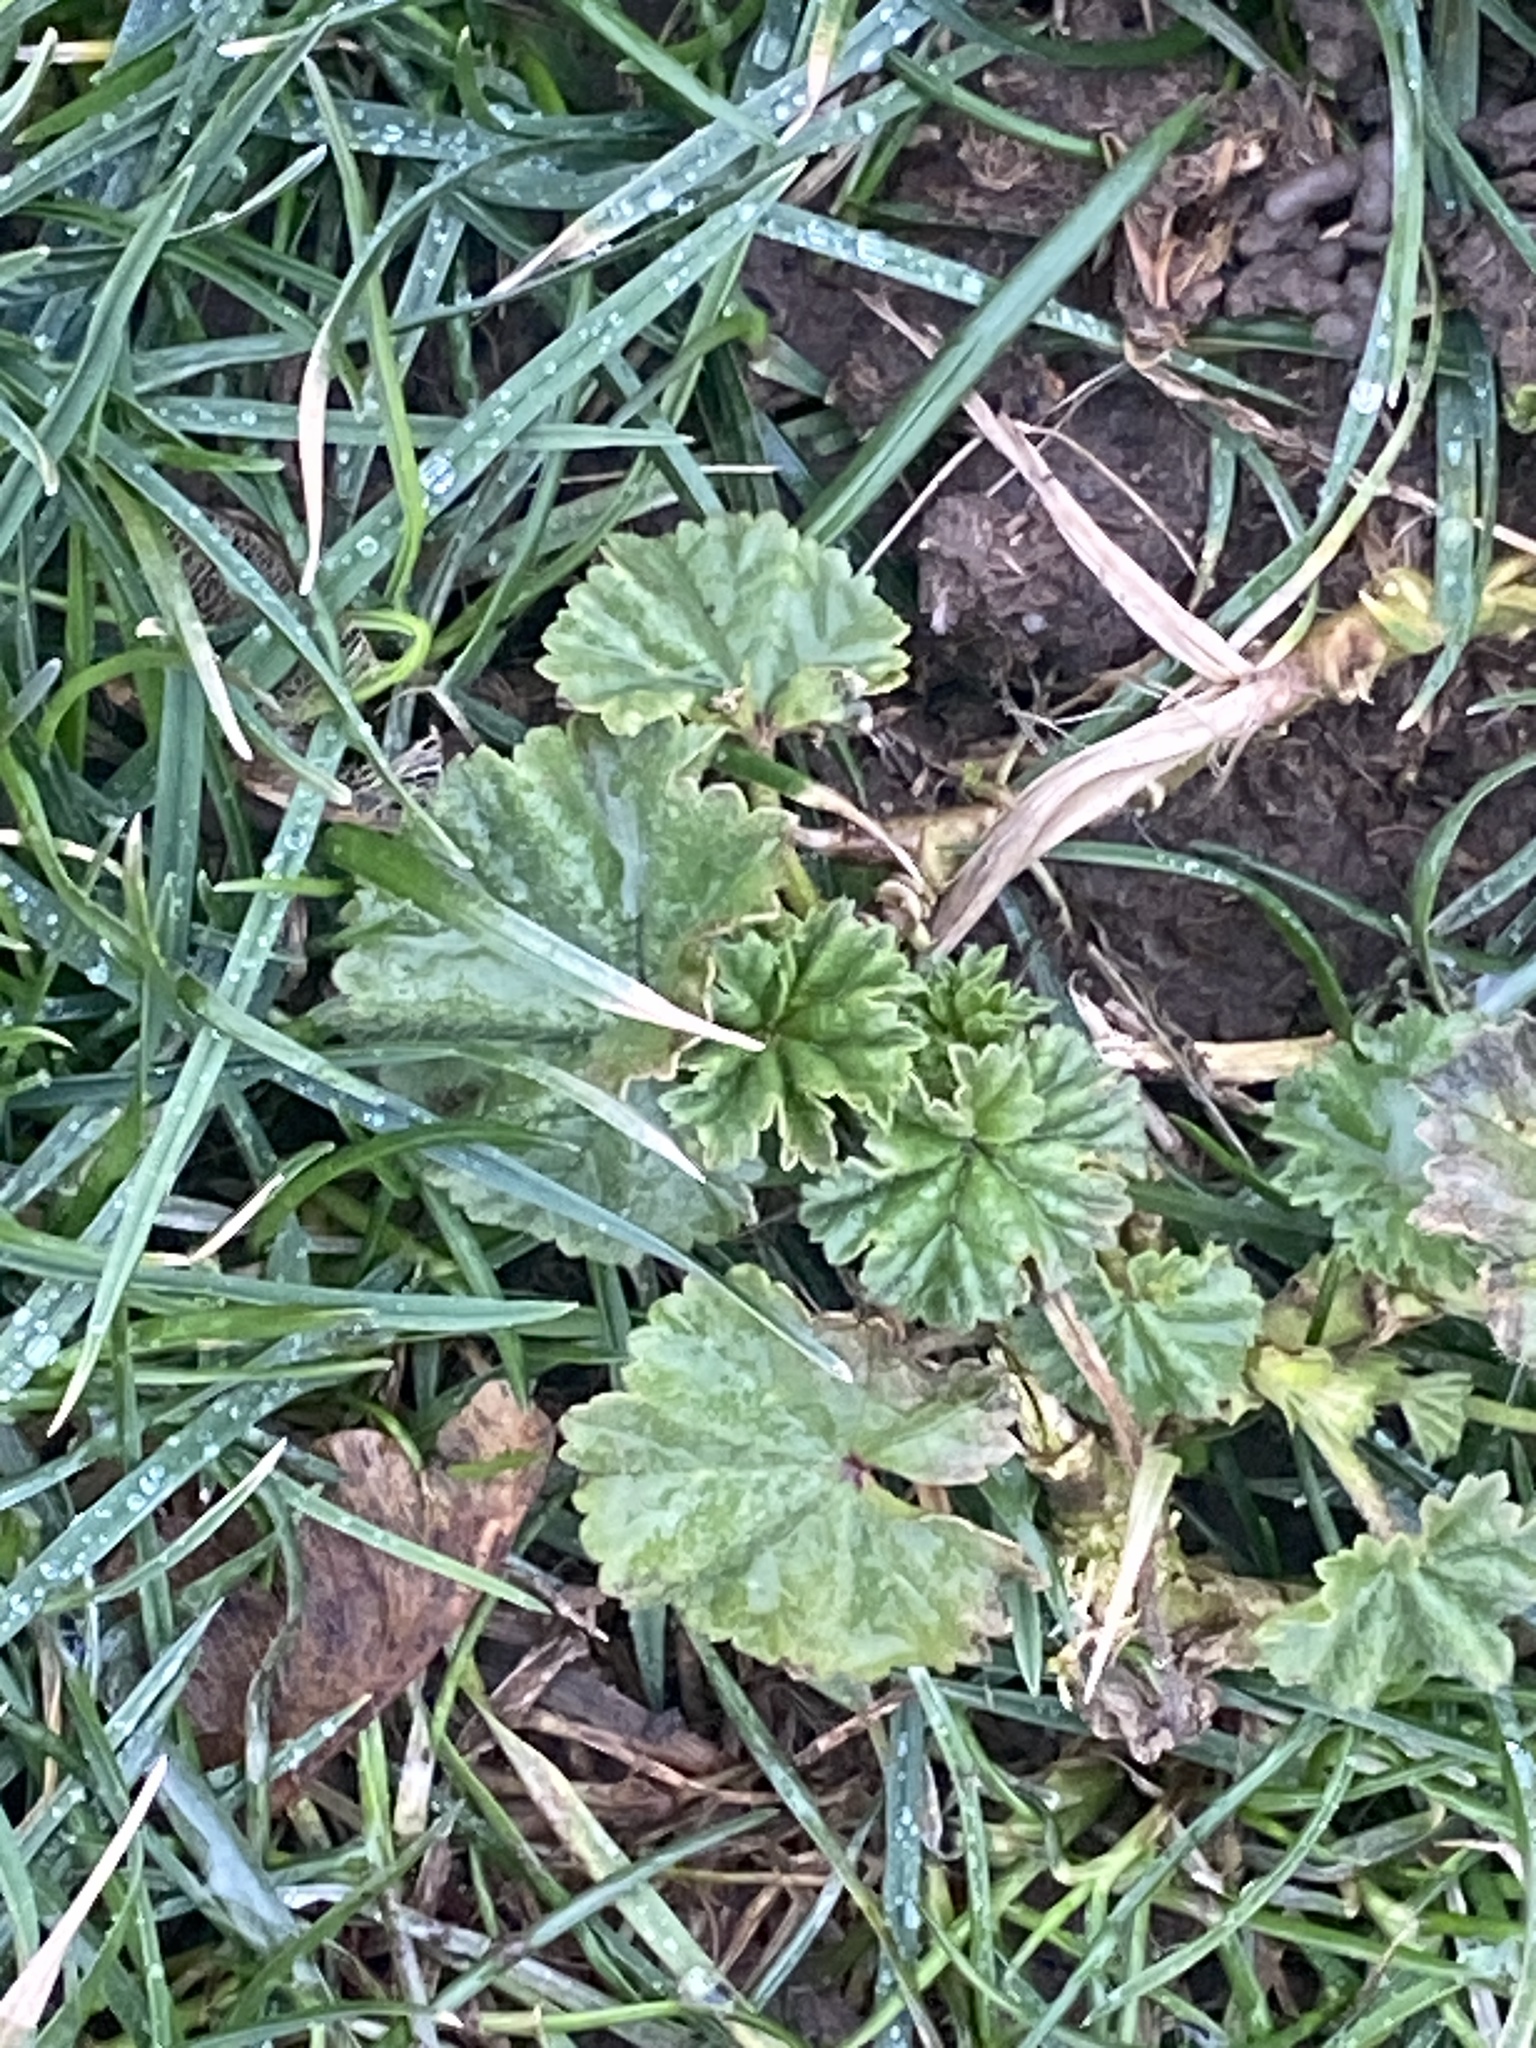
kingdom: Plantae
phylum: Tracheophyta
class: Magnoliopsida
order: Malvales
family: Malvaceae
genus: Malva
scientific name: Malva neglecta
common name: Common mallow
